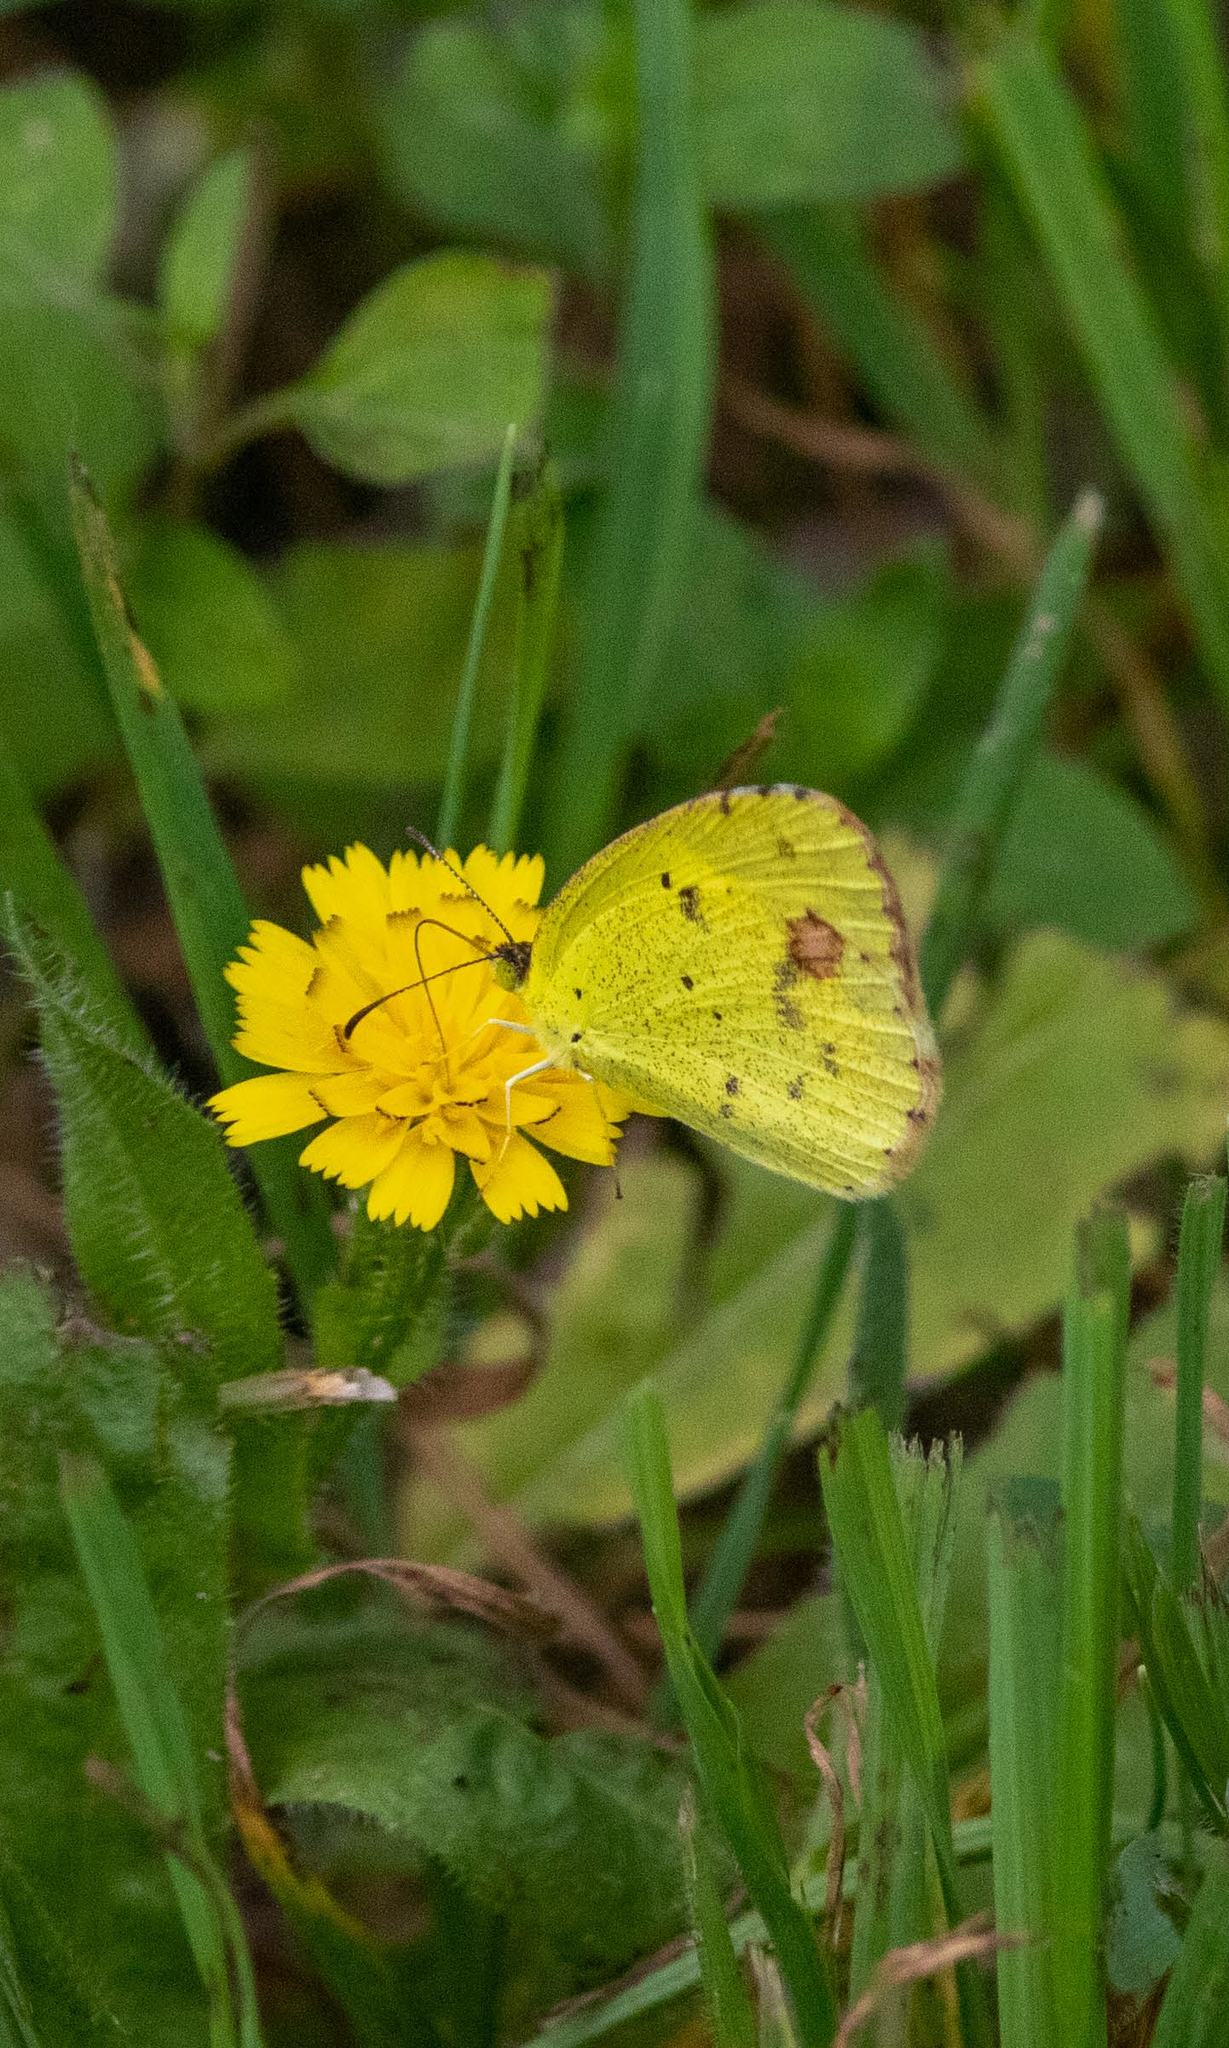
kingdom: Animalia
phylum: Arthropoda
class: Insecta
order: Lepidoptera
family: Pieridae
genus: Pyrisitia
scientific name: Pyrisitia lisa
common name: Little yellow
